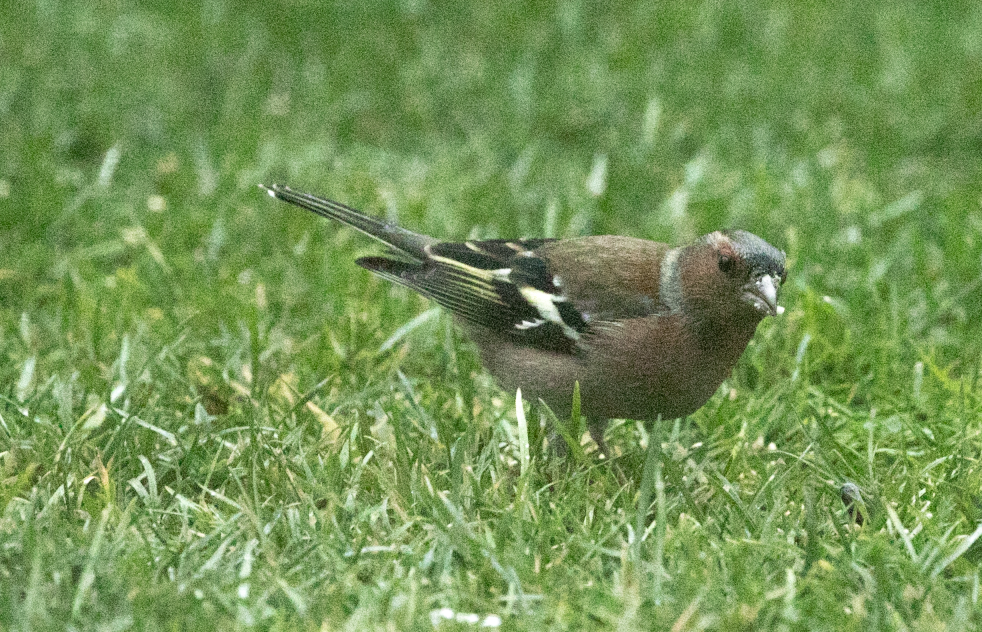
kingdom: Animalia
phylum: Chordata
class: Aves
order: Passeriformes
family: Fringillidae
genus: Fringilla
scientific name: Fringilla coelebs
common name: Common chaffinch
